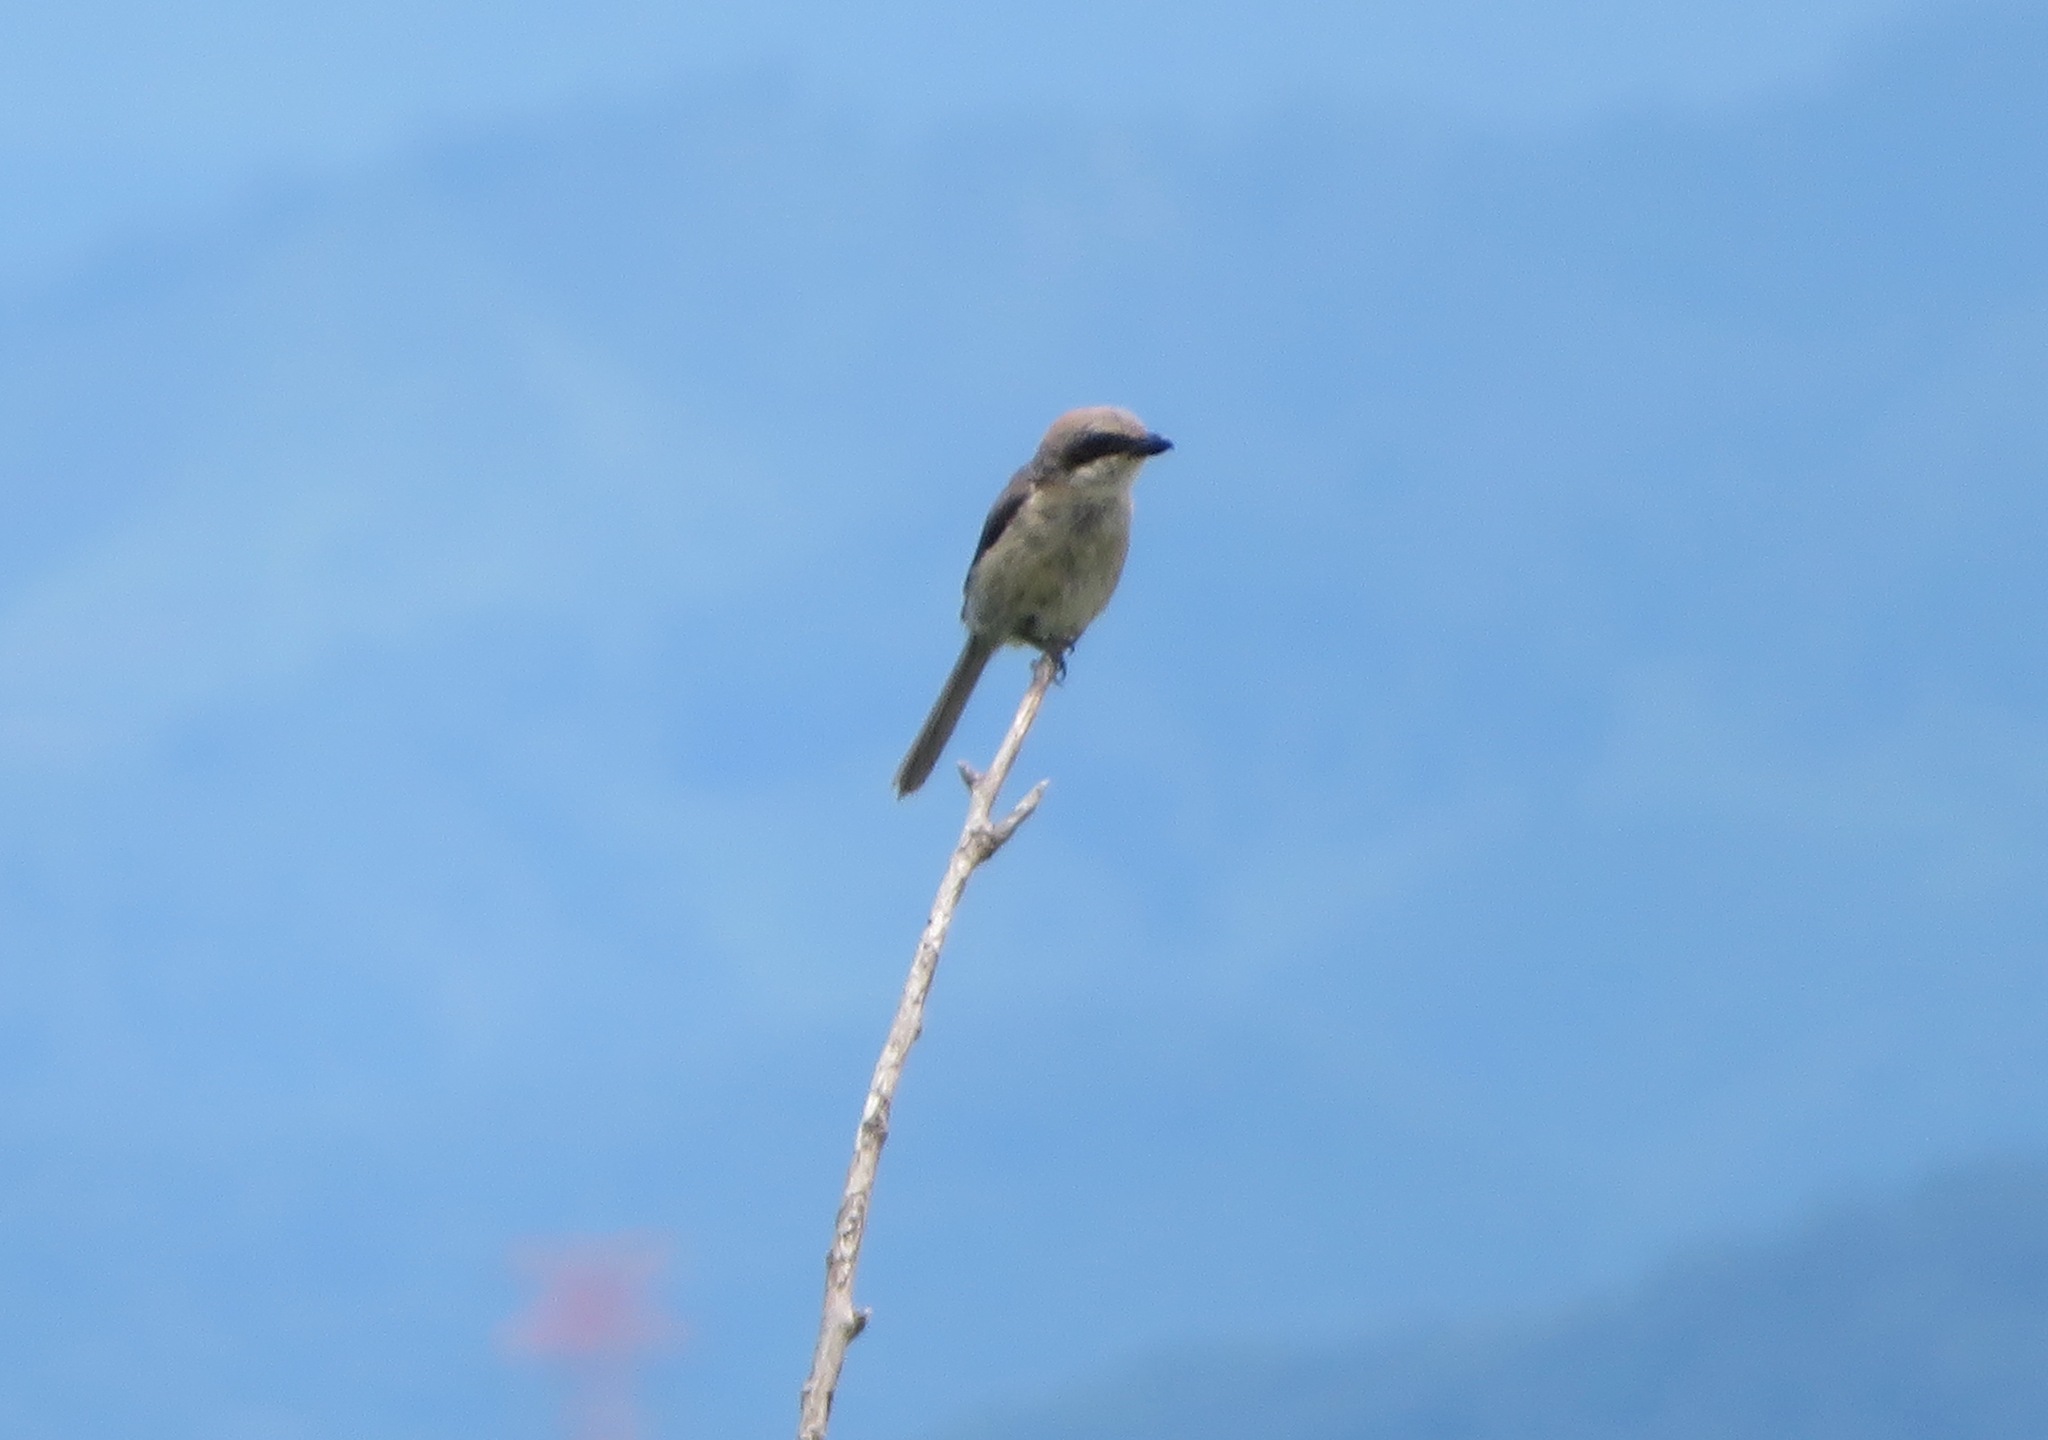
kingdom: Animalia
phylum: Chordata
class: Aves
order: Passeriformes
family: Laniidae
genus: Lanius
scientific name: Lanius bucephalus
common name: Bull-headed shrike
